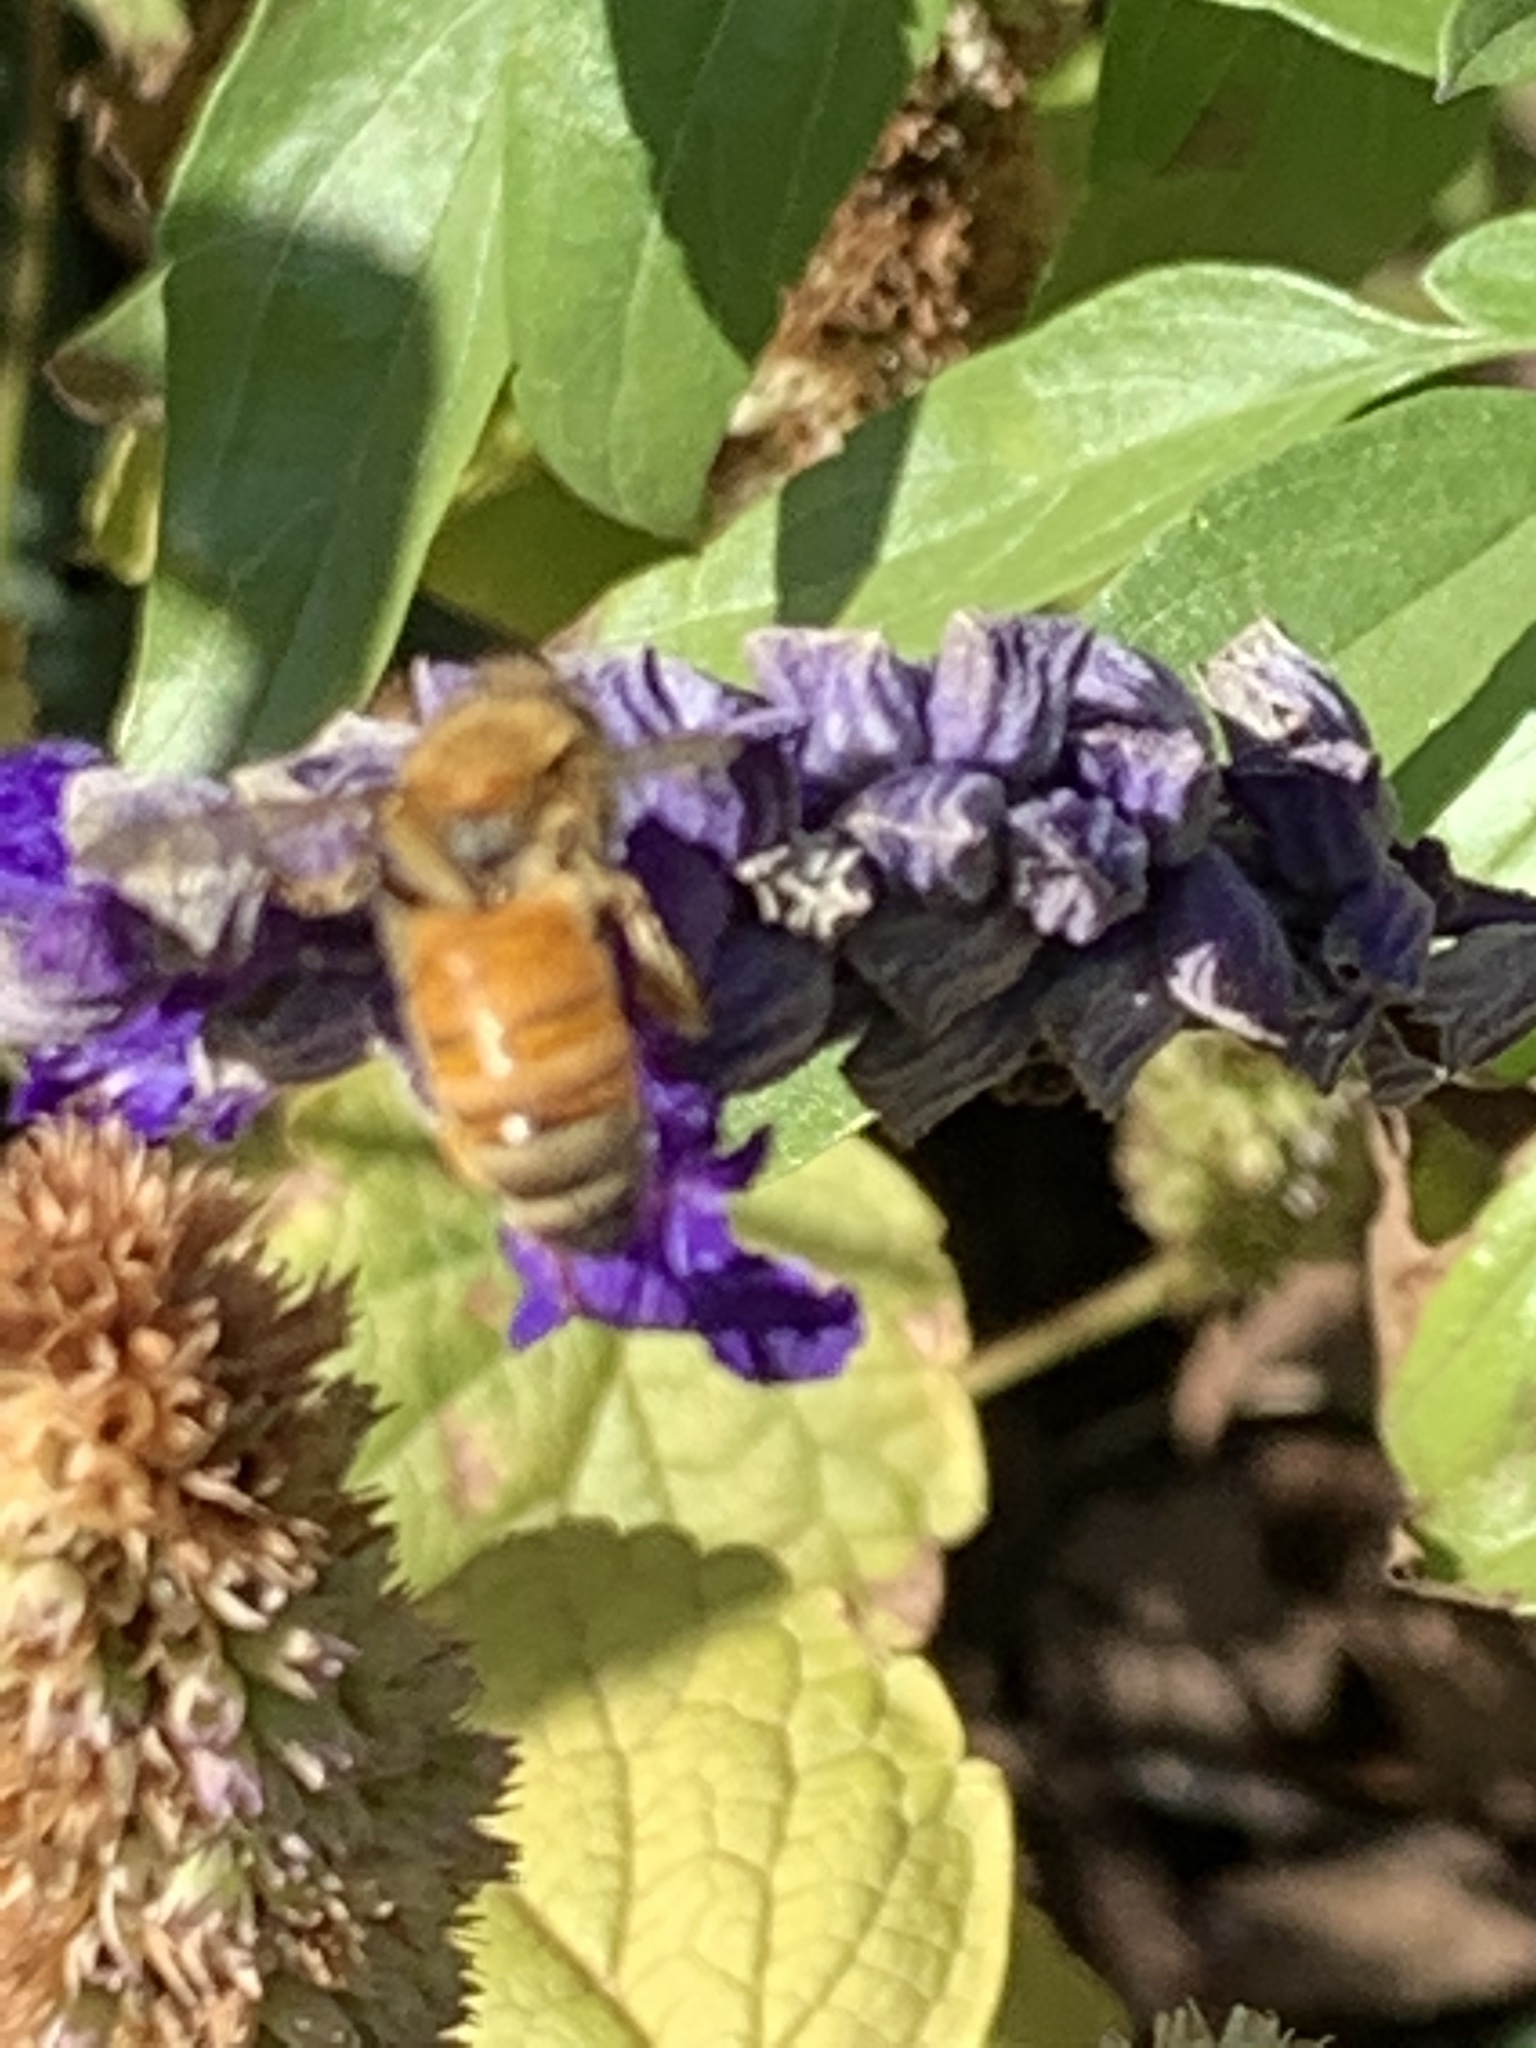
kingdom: Animalia
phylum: Arthropoda
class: Insecta
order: Hymenoptera
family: Apidae
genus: Apis
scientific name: Apis mellifera
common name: Honey bee
